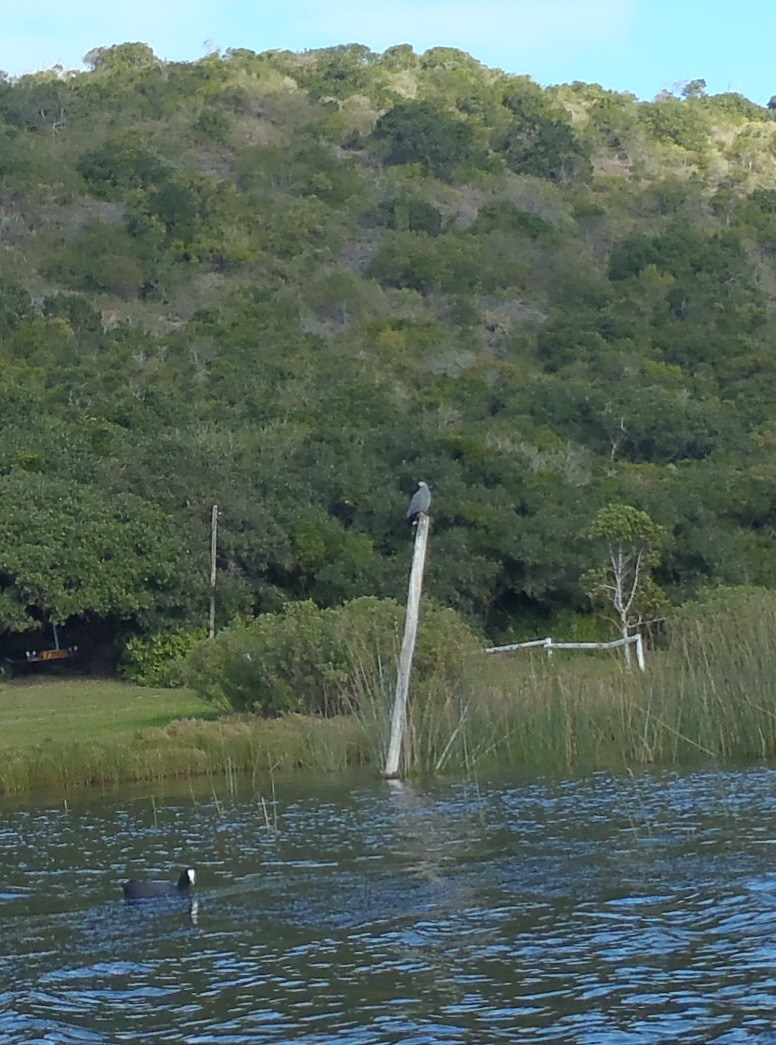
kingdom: Animalia
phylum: Chordata
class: Aves
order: Accipitriformes
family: Accipitridae
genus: Polyboroides
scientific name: Polyboroides typus
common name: African harrier-hawk
